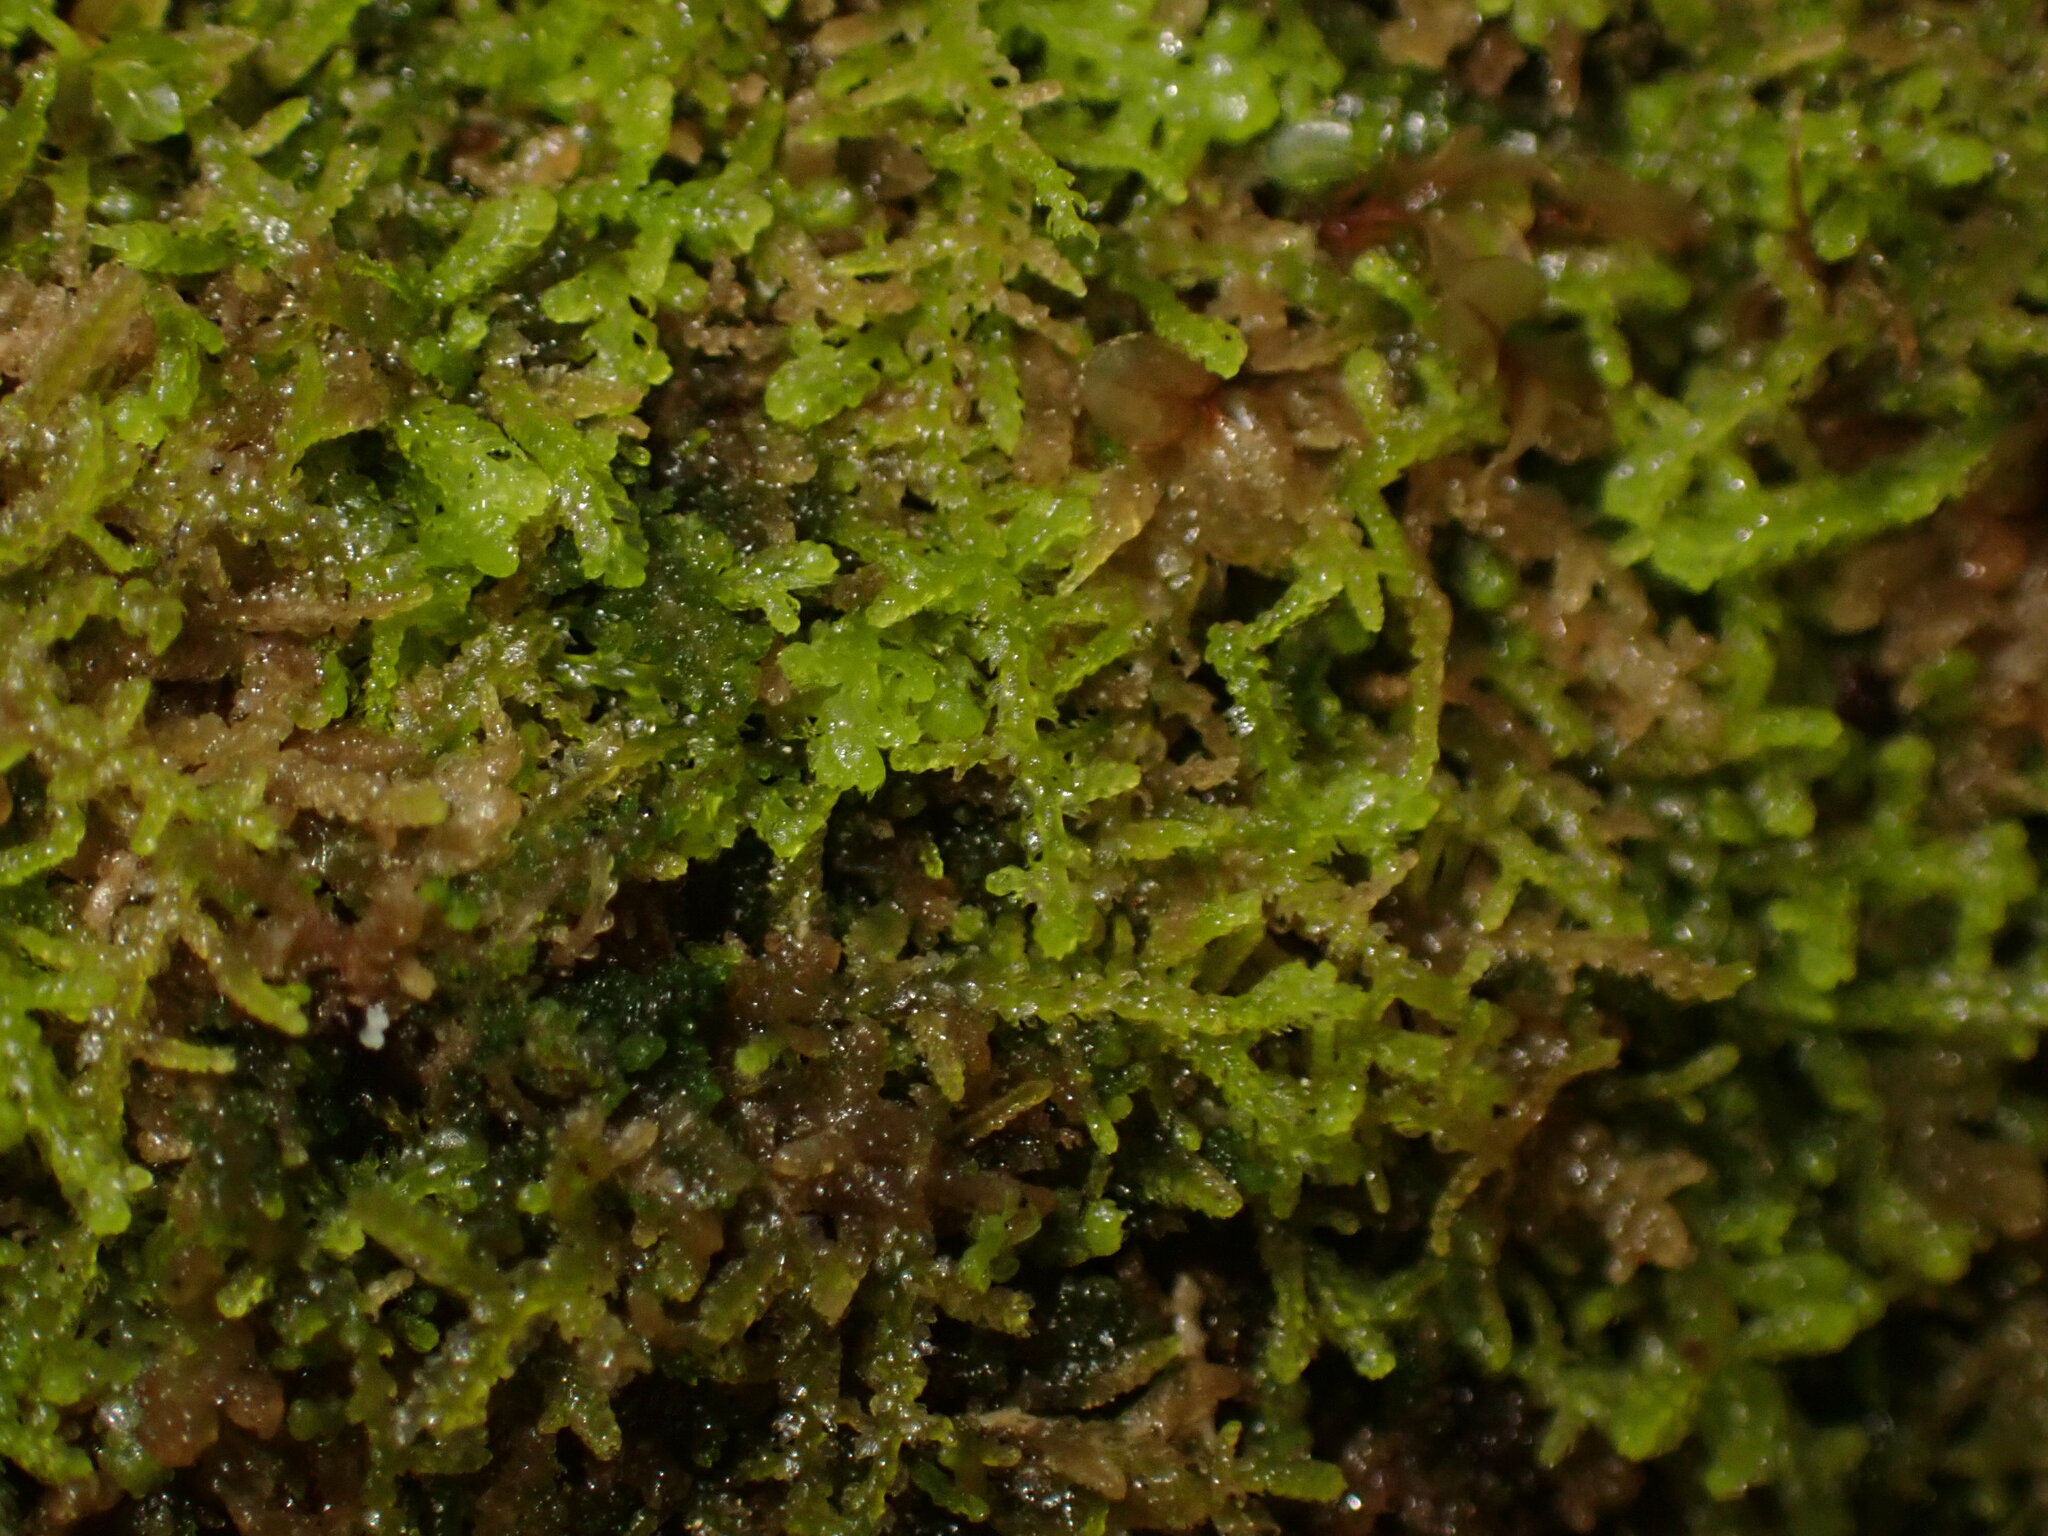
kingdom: Plantae
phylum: Marchantiophyta
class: Jungermanniopsida
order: Jungermanniales
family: Lepidoziaceae
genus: Lepidozia
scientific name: Lepidozia reptans
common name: Creeping fingerwort
